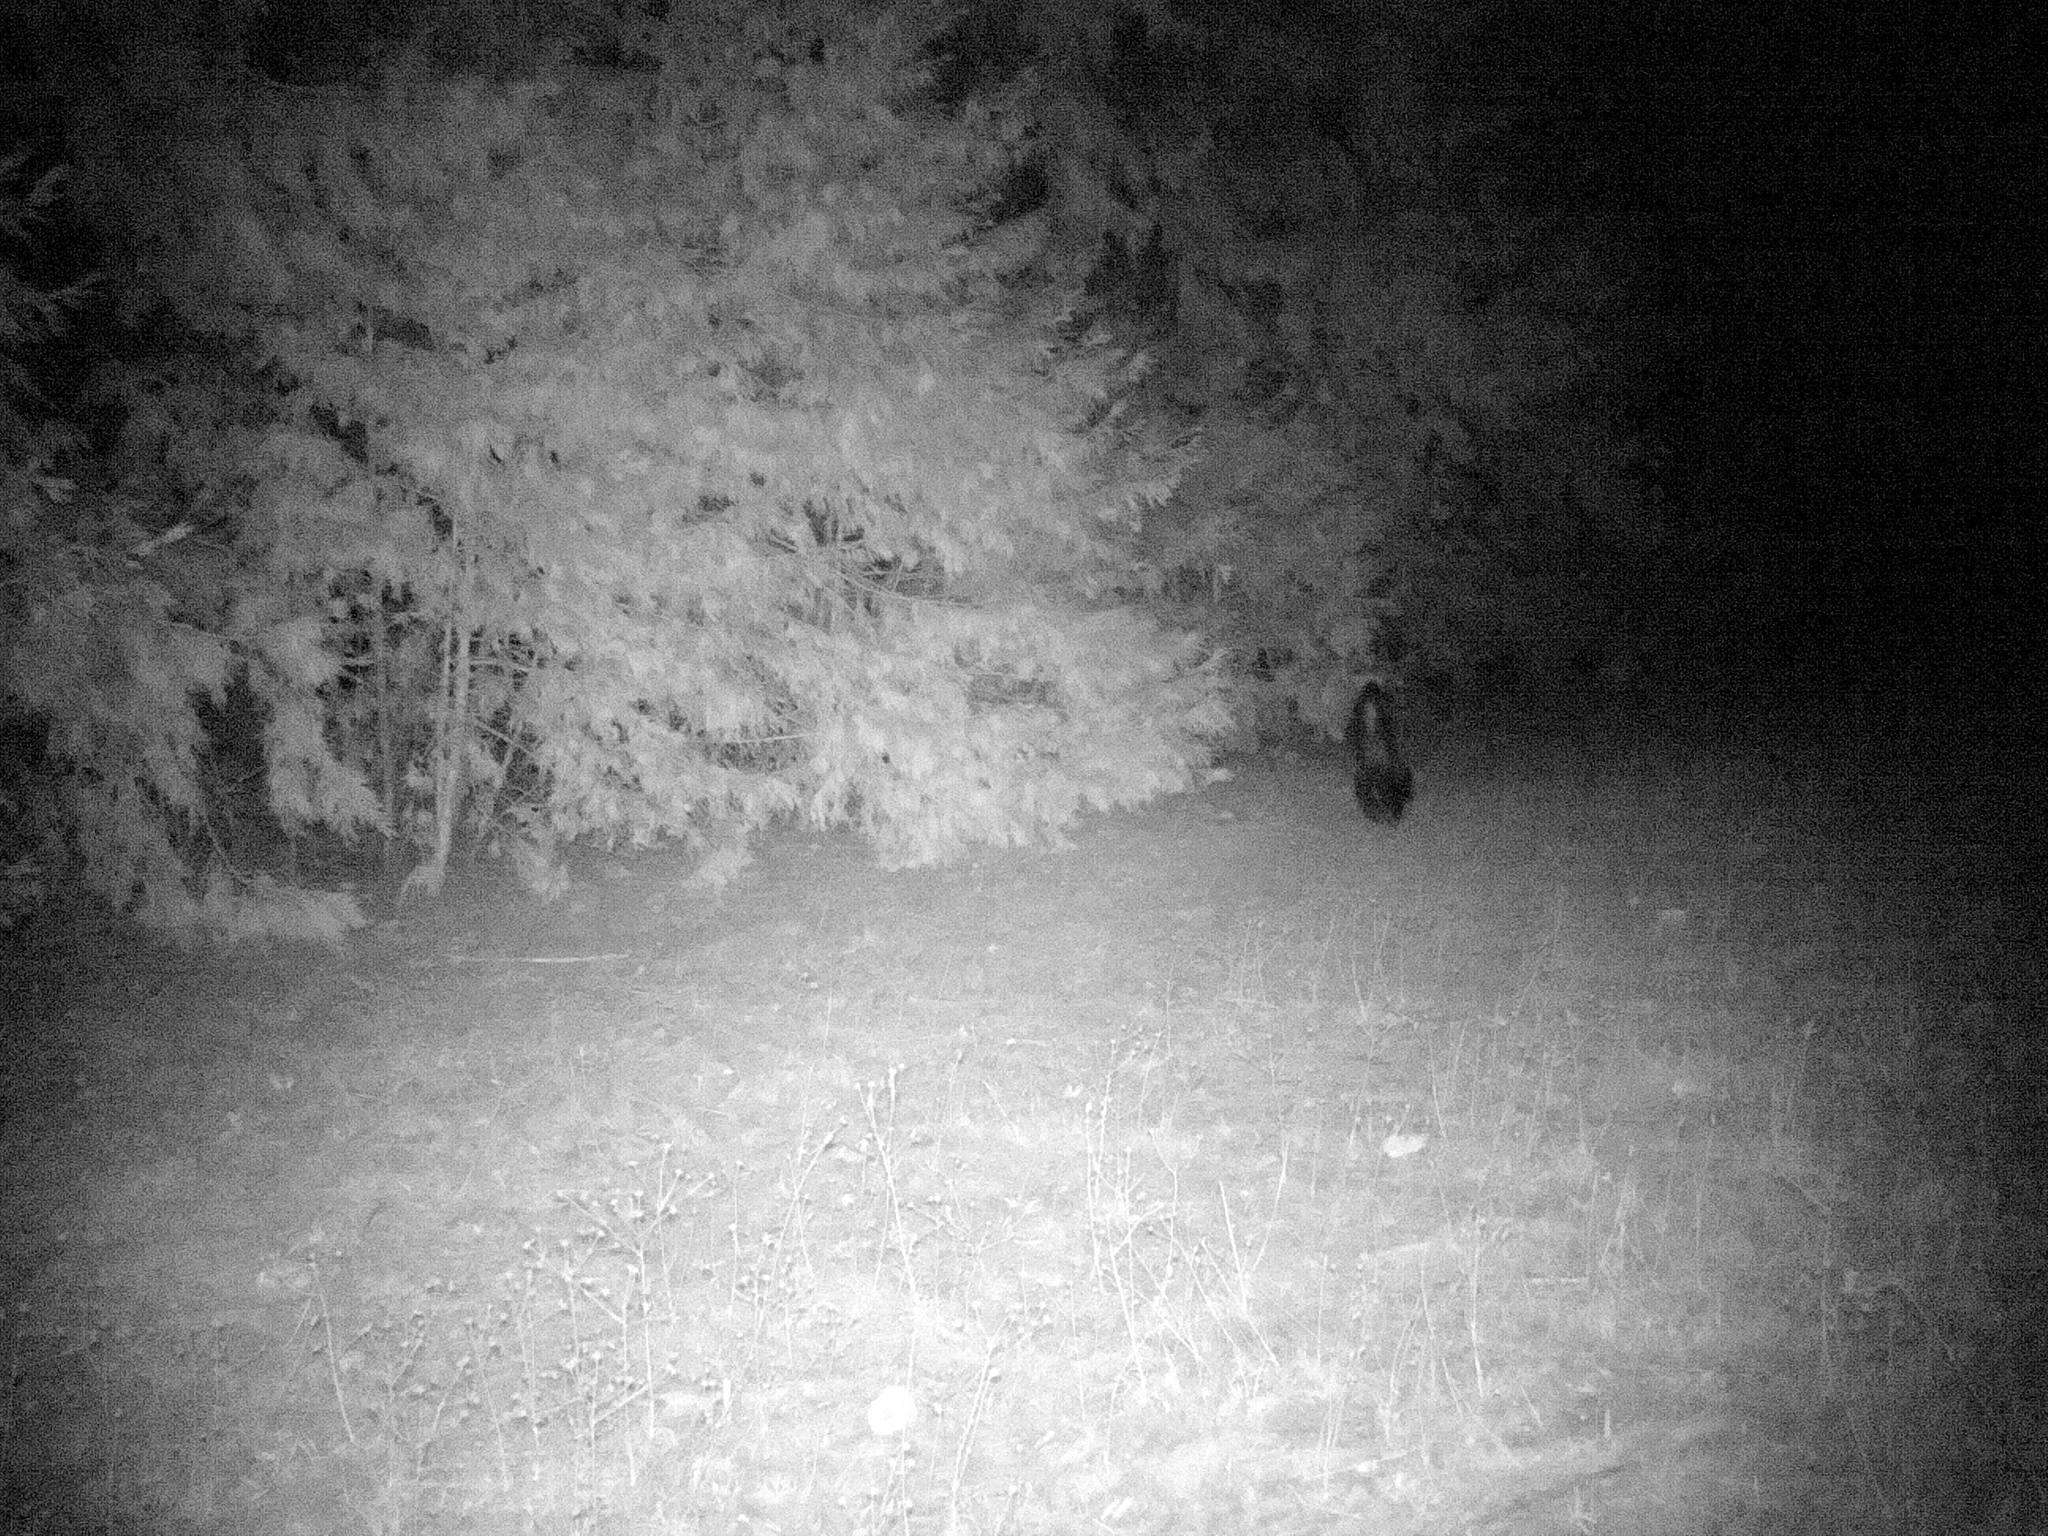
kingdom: Animalia
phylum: Chordata
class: Mammalia
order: Carnivora
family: Mephitidae
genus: Mephitis
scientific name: Mephitis mephitis
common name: Striped skunk
